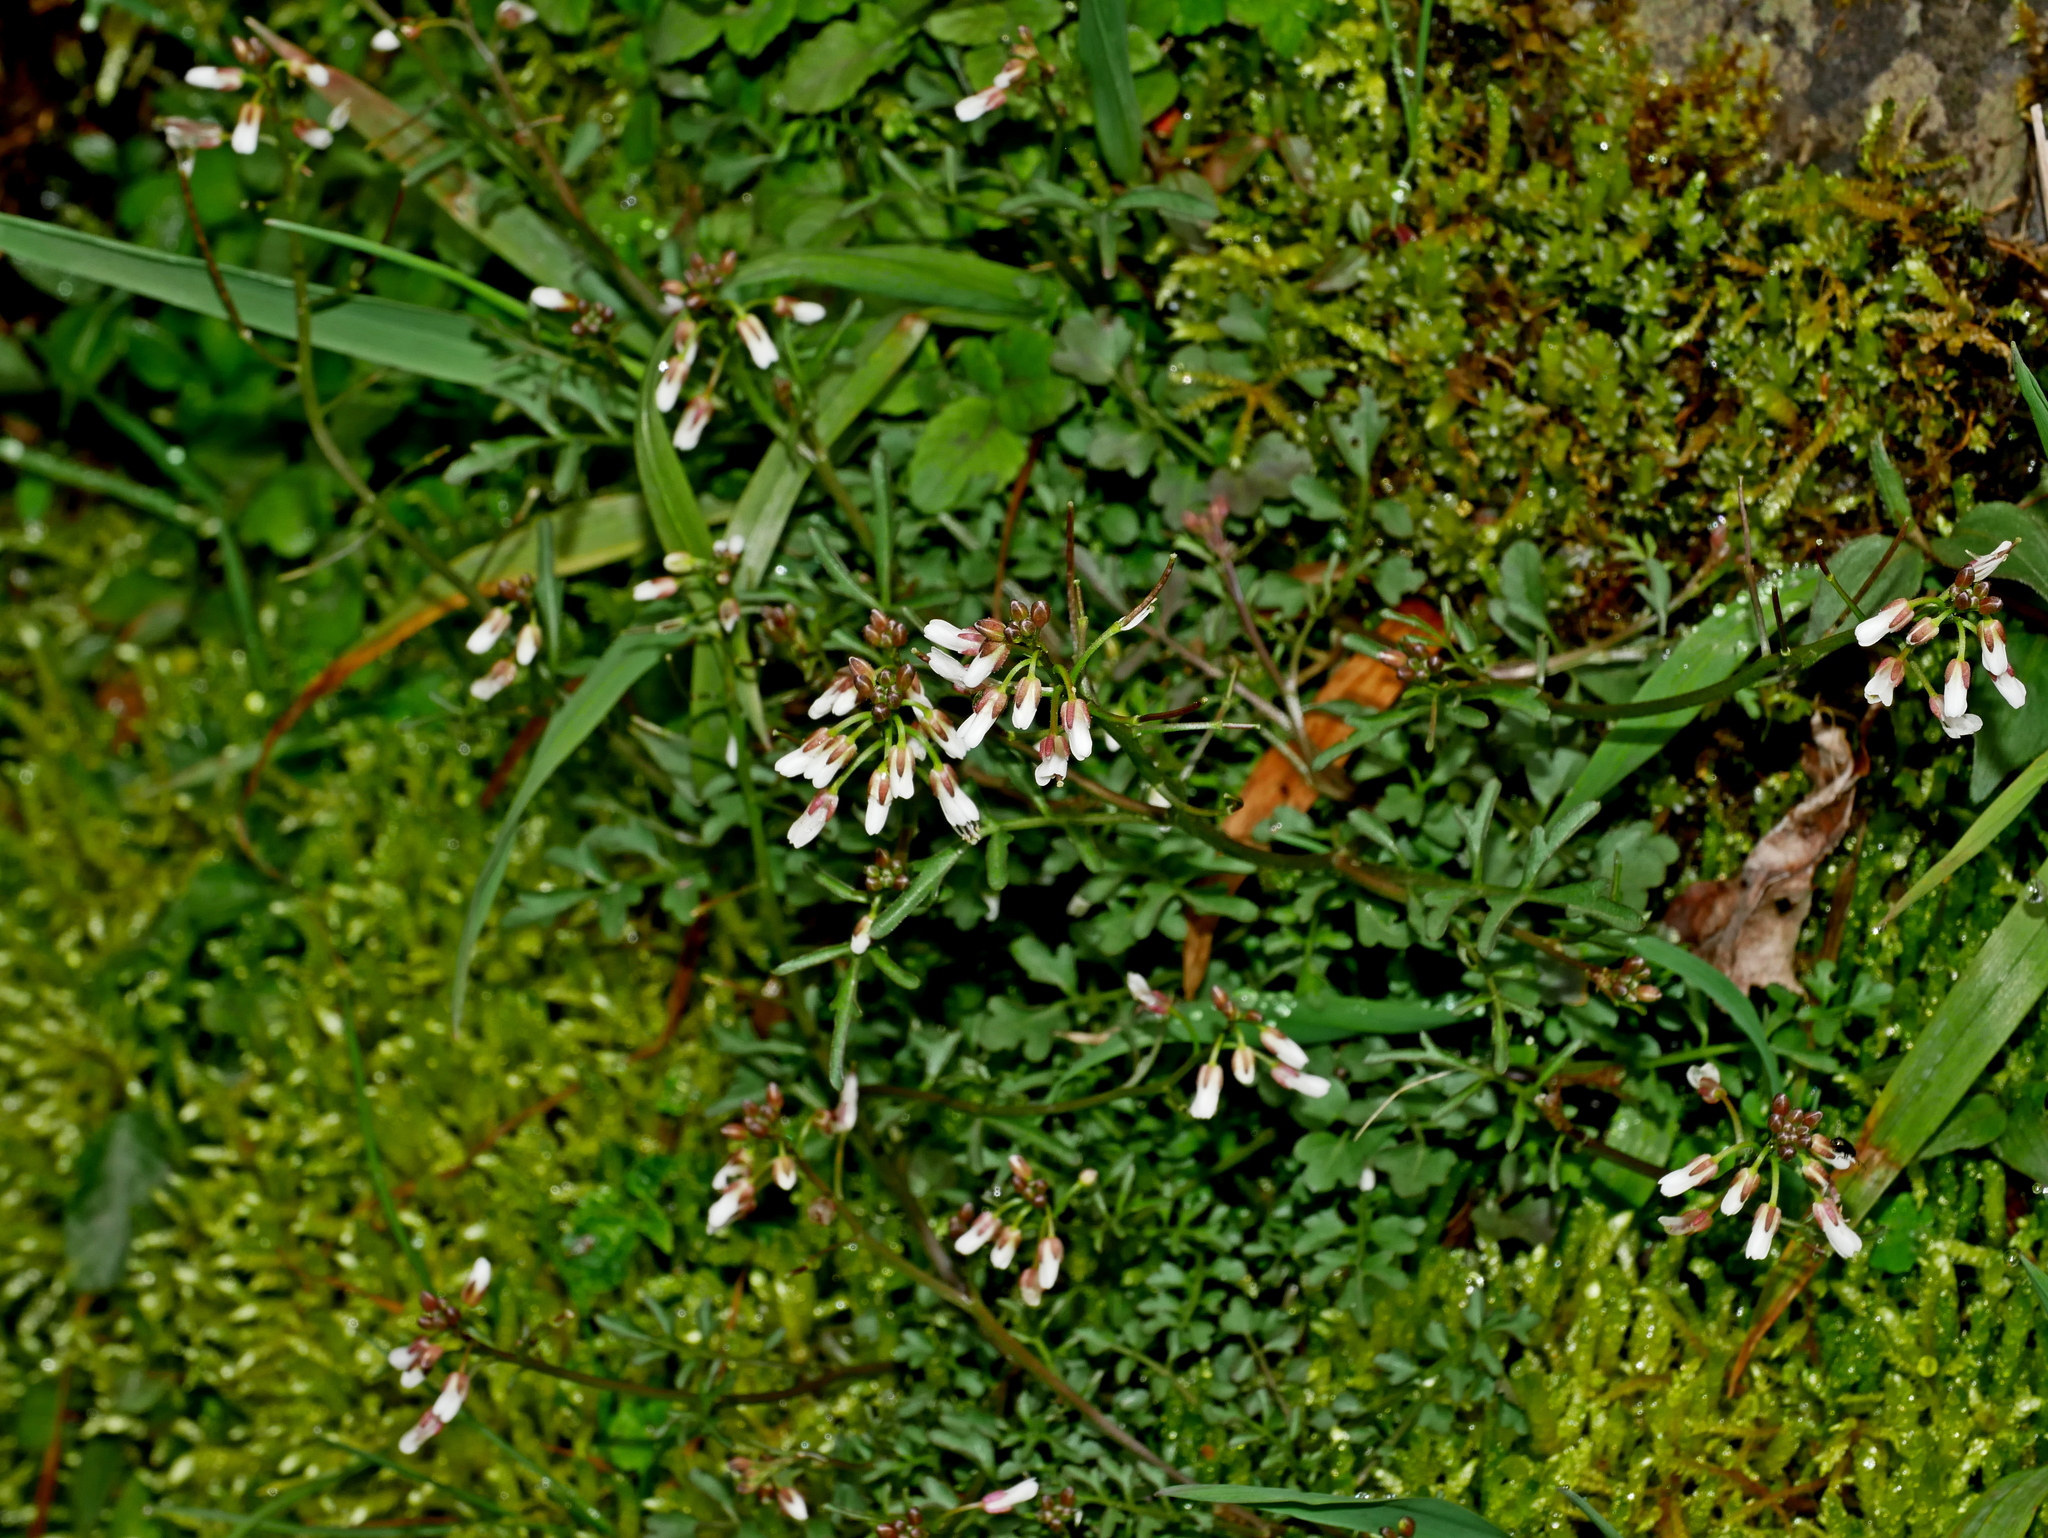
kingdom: Plantae
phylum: Tracheophyta
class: Magnoliopsida
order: Brassicales
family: Brassicaceae
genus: Cardamine
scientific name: Cardamine impatiens
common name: Narrow-leaved bitter-cress
